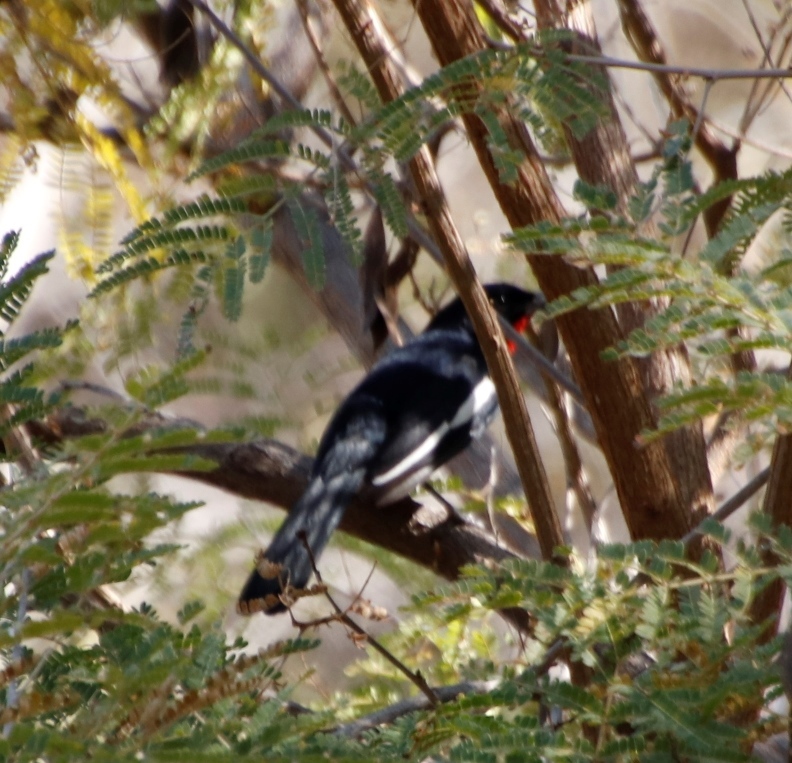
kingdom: Animalia
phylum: Chordata
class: Aves
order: Passeriformes
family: Malaconotidae
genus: Laniarius
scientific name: Laniarius atrococcineus
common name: Crimson-breasted shrike
